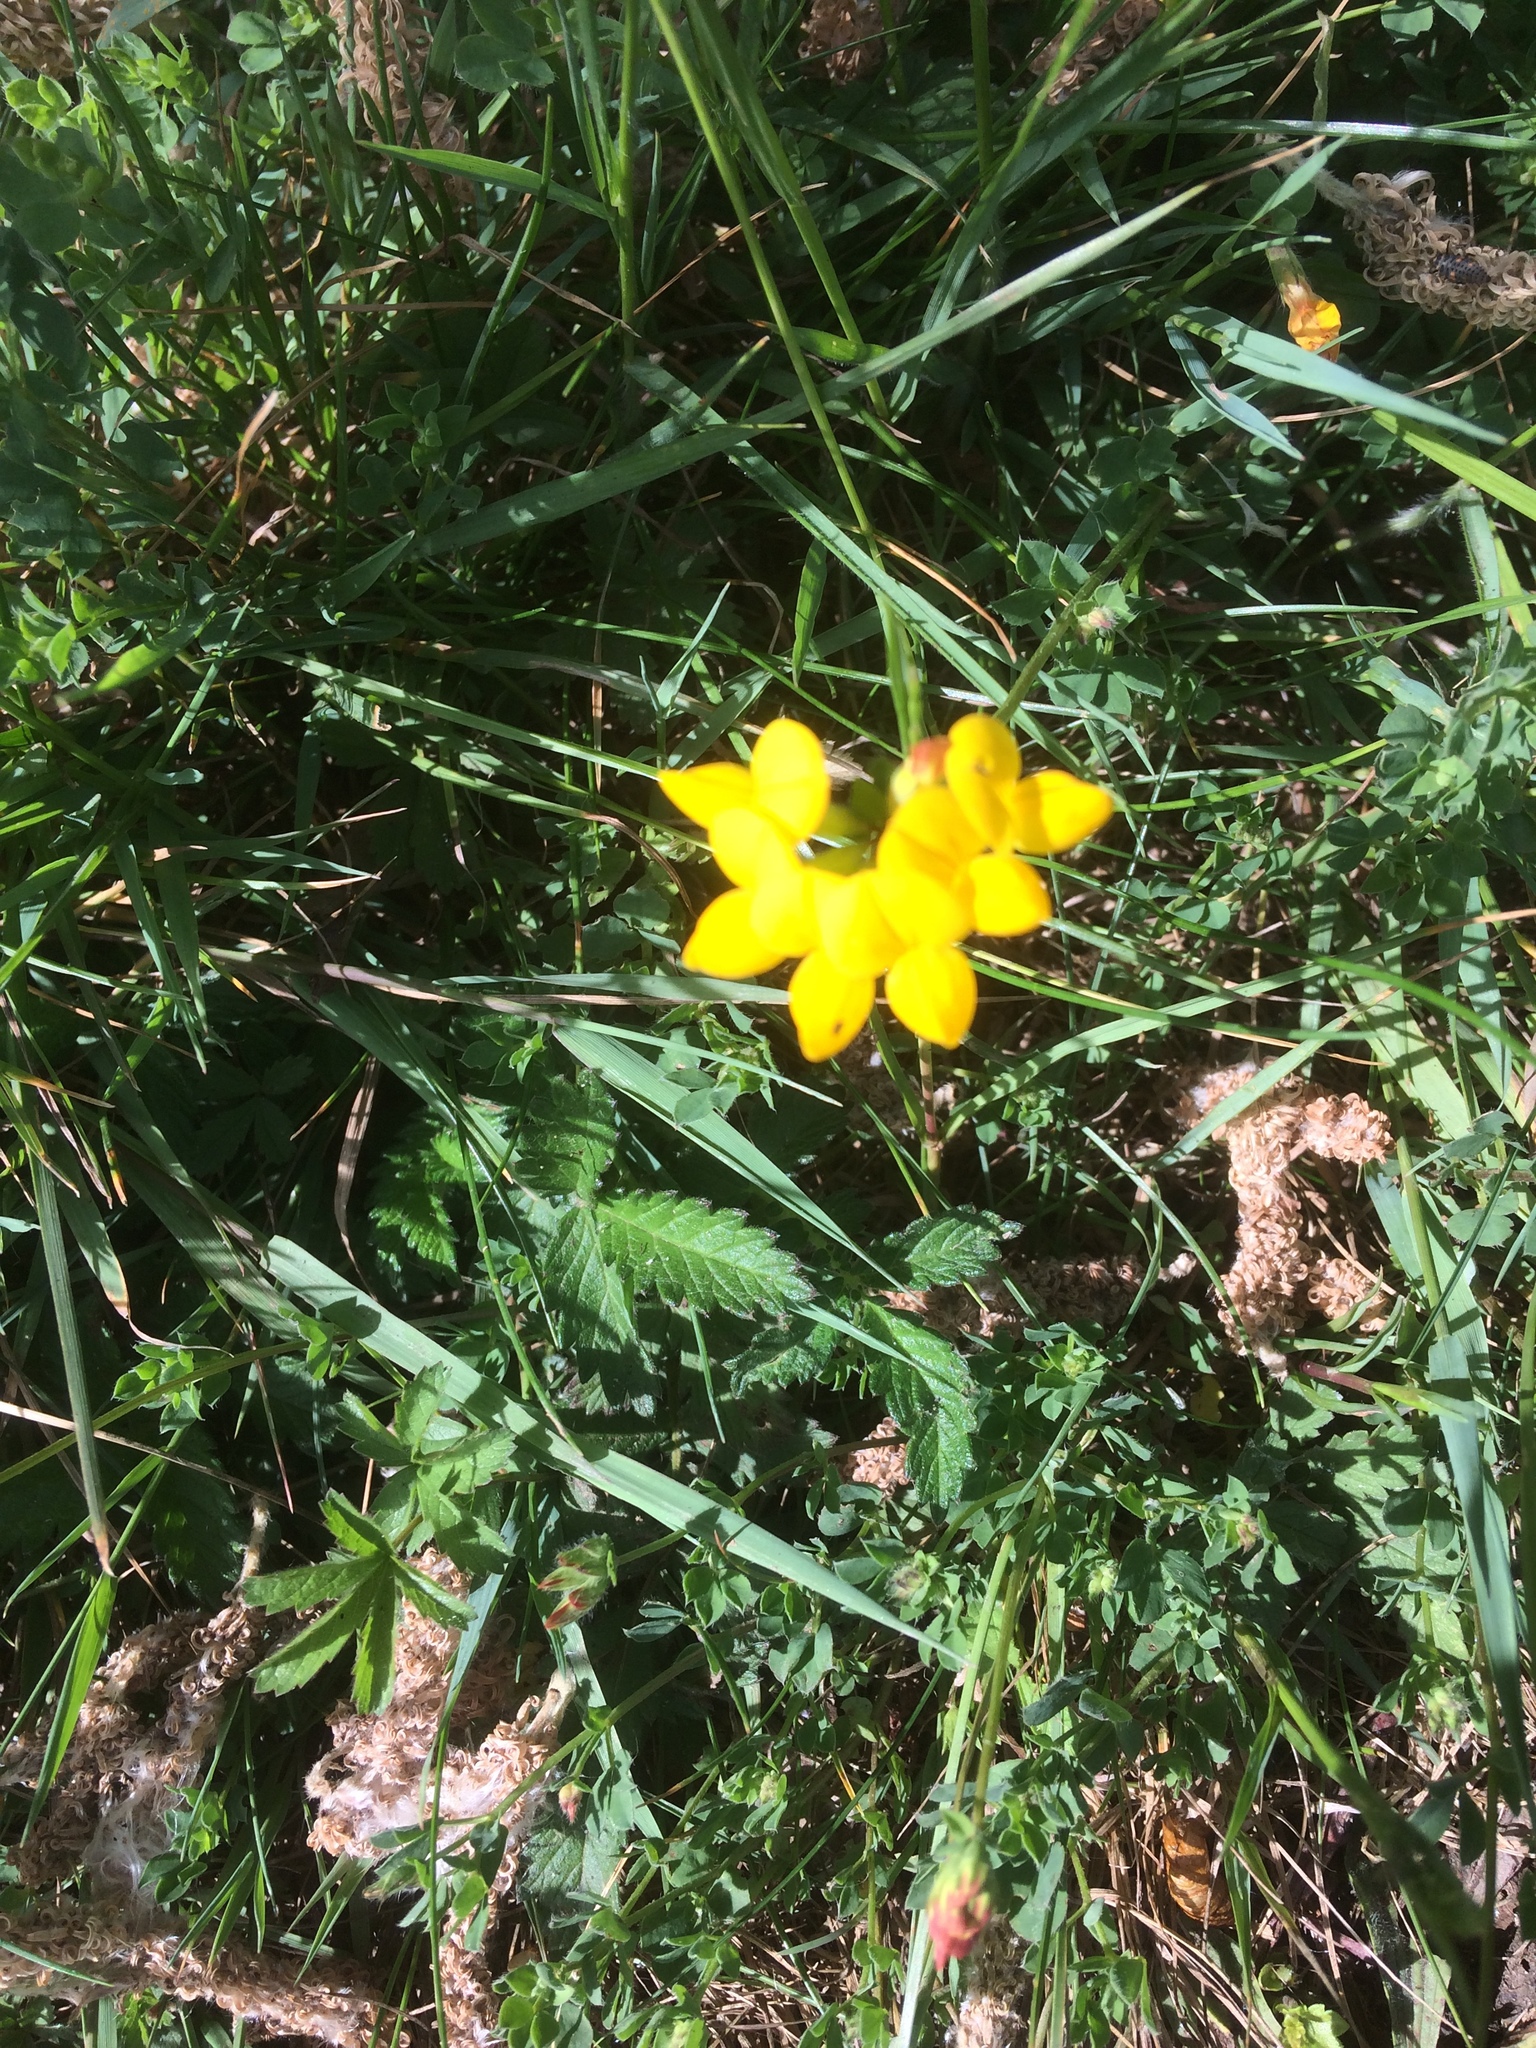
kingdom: Plantae
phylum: Tracheophyta
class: Magnoliopsida
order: Fabales
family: Fabaceae
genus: Lotus
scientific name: Lotus corniculatus
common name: Common bird's-foot-trefoil
